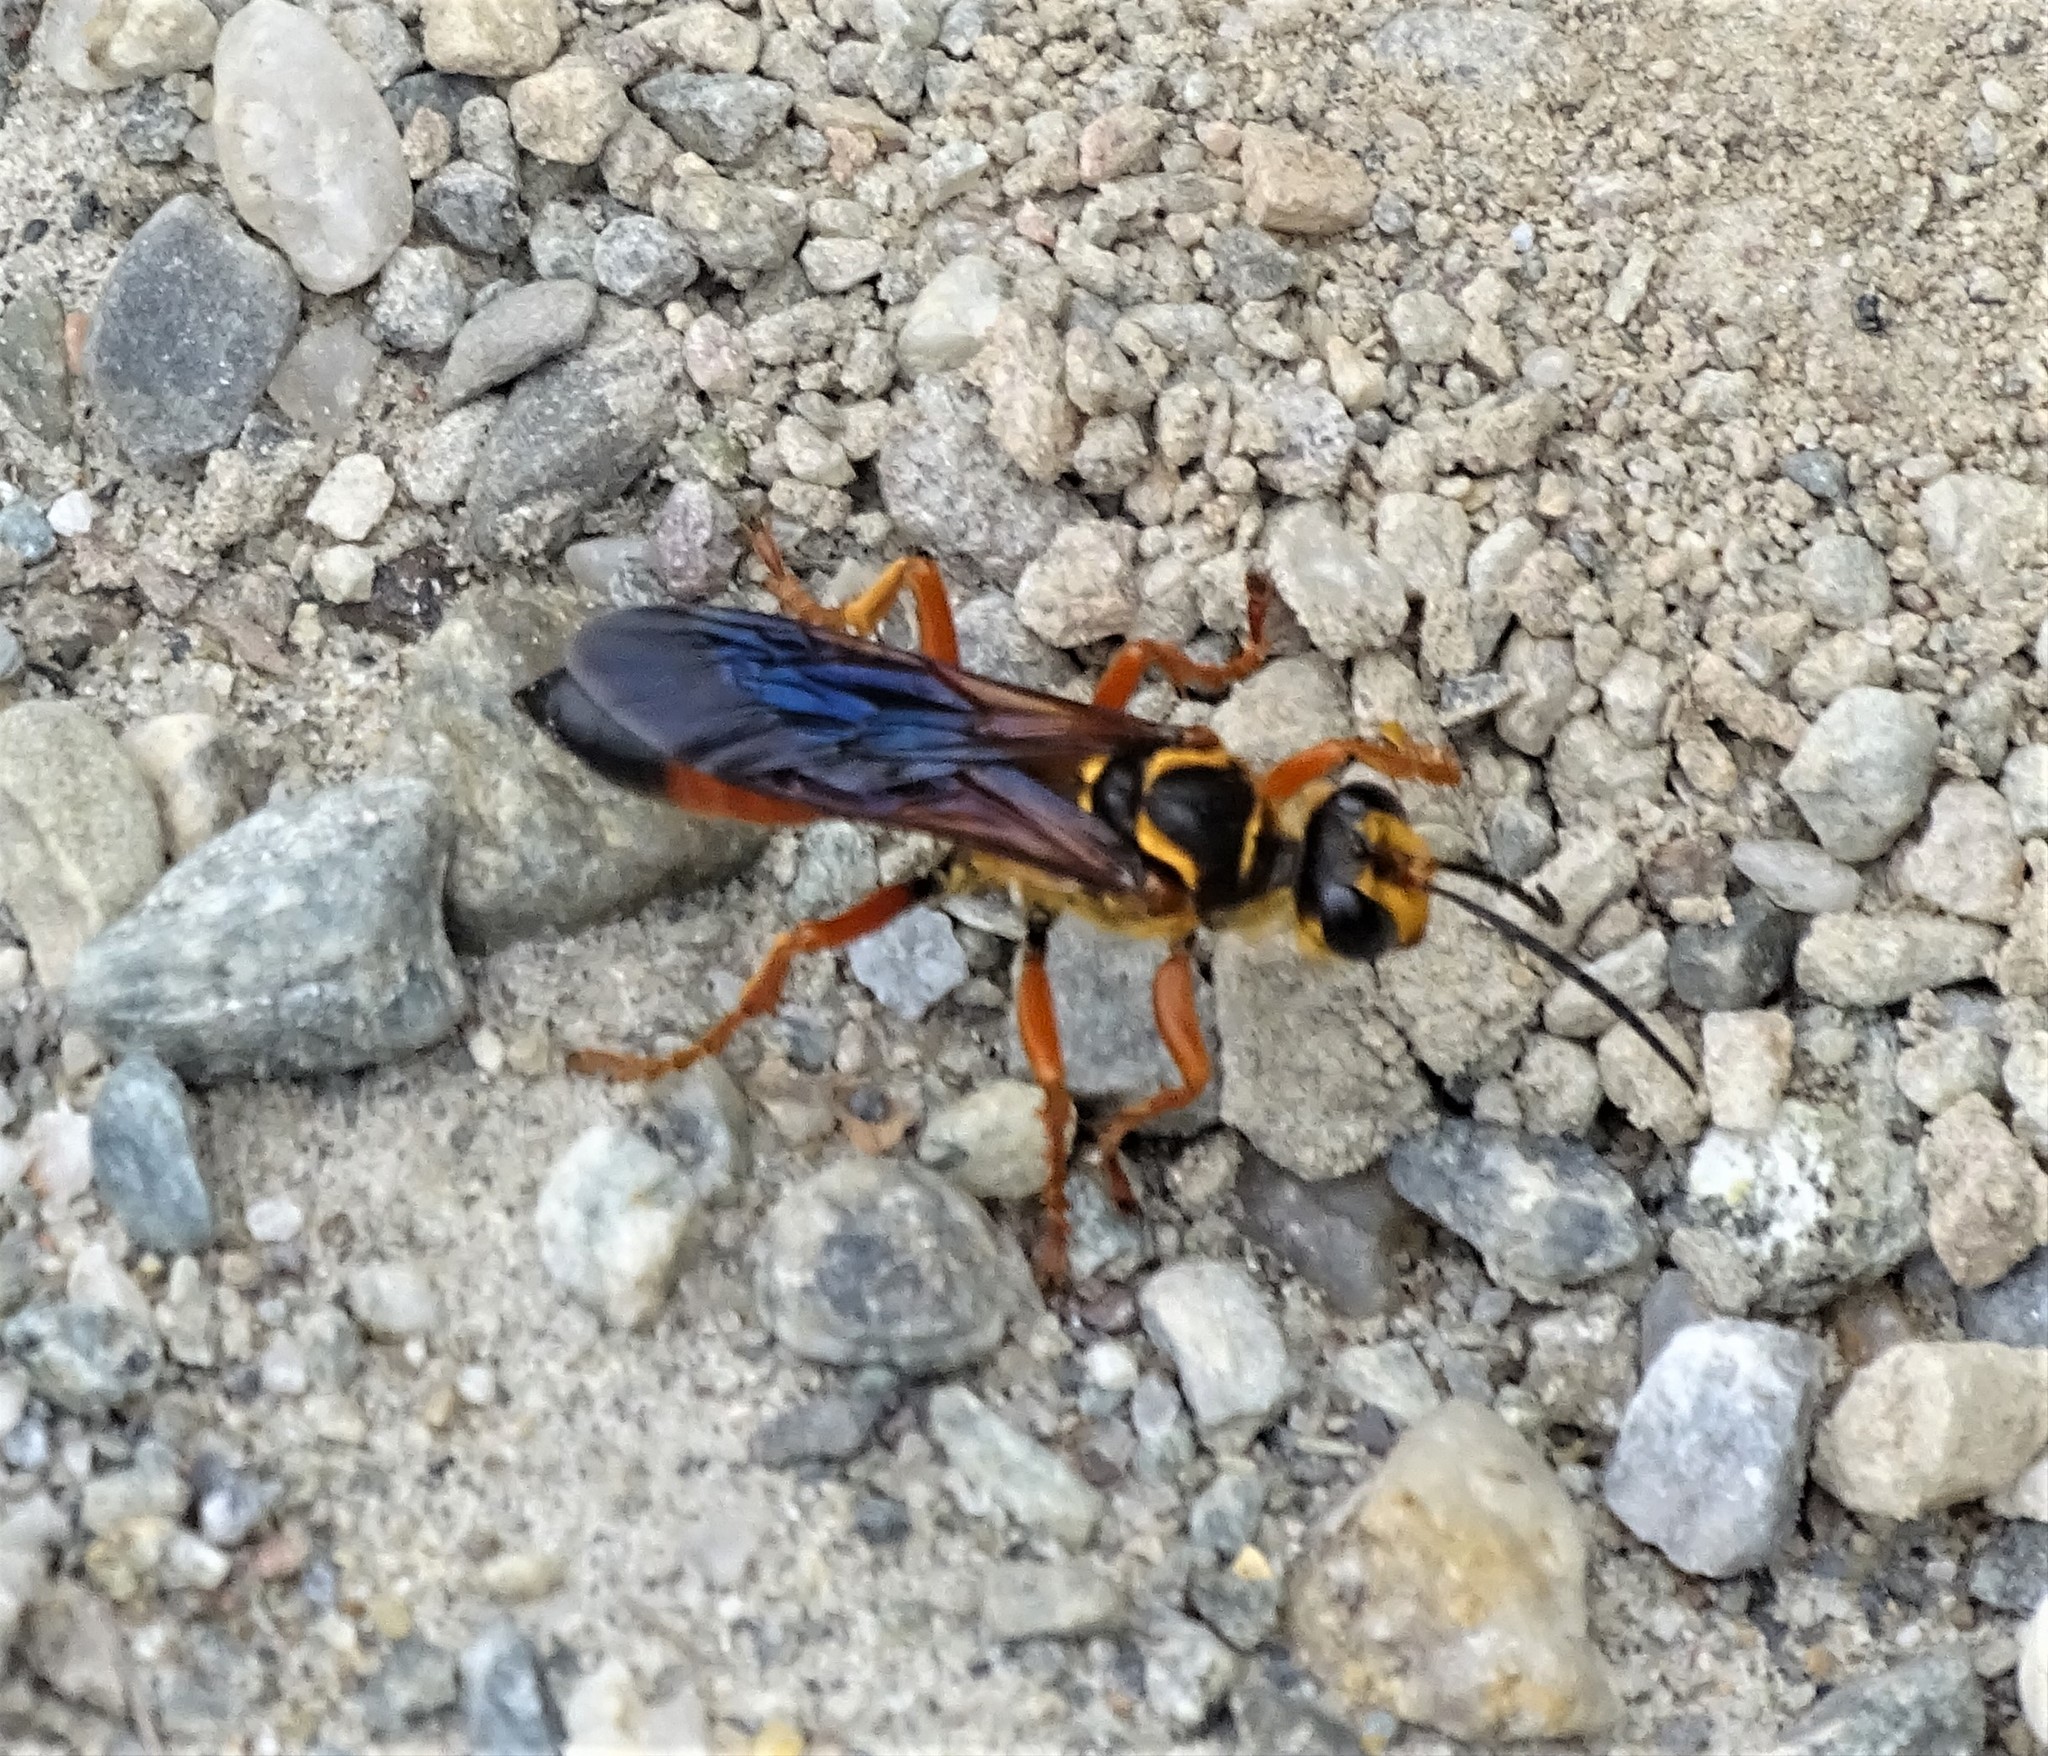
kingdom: Animalia
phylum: Arthropoda
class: Insecta
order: Hymenoptera
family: Sphecidae
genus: Sphex
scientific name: Sphex ichneumoneus
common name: Great golden digger wasp
